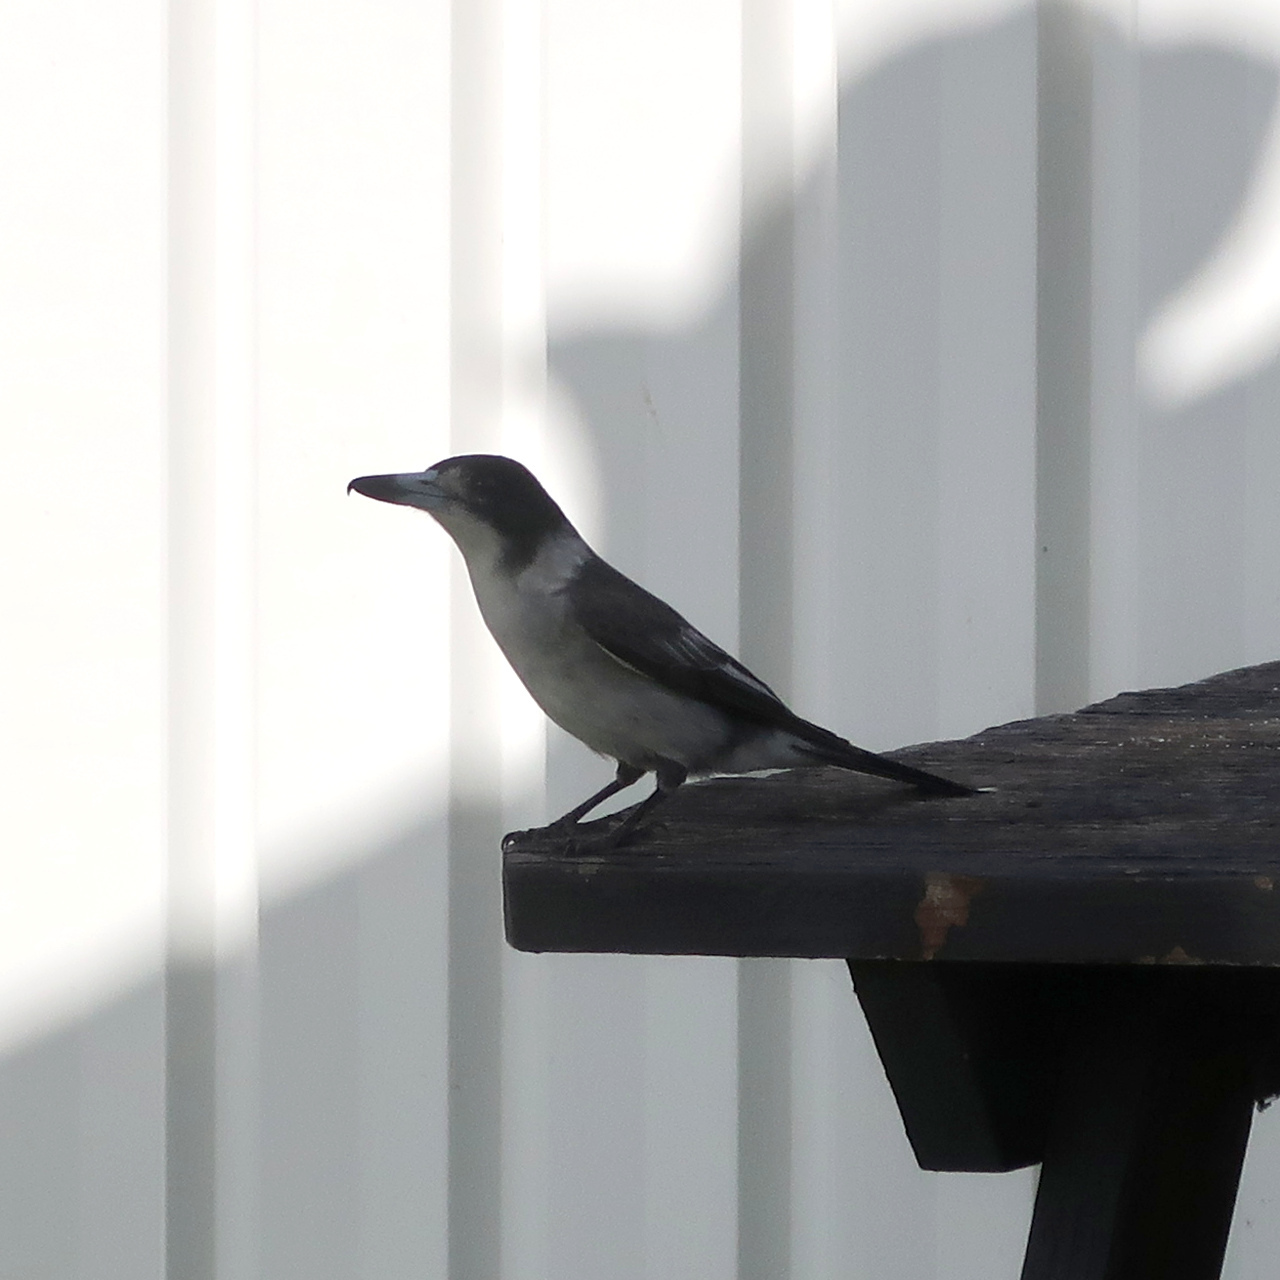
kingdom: Animalia
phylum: Chordata
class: Aves
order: Passeriformes
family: Cracticidae
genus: Cracticus
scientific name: Cracticus torquatus
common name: Grey butcherbird
